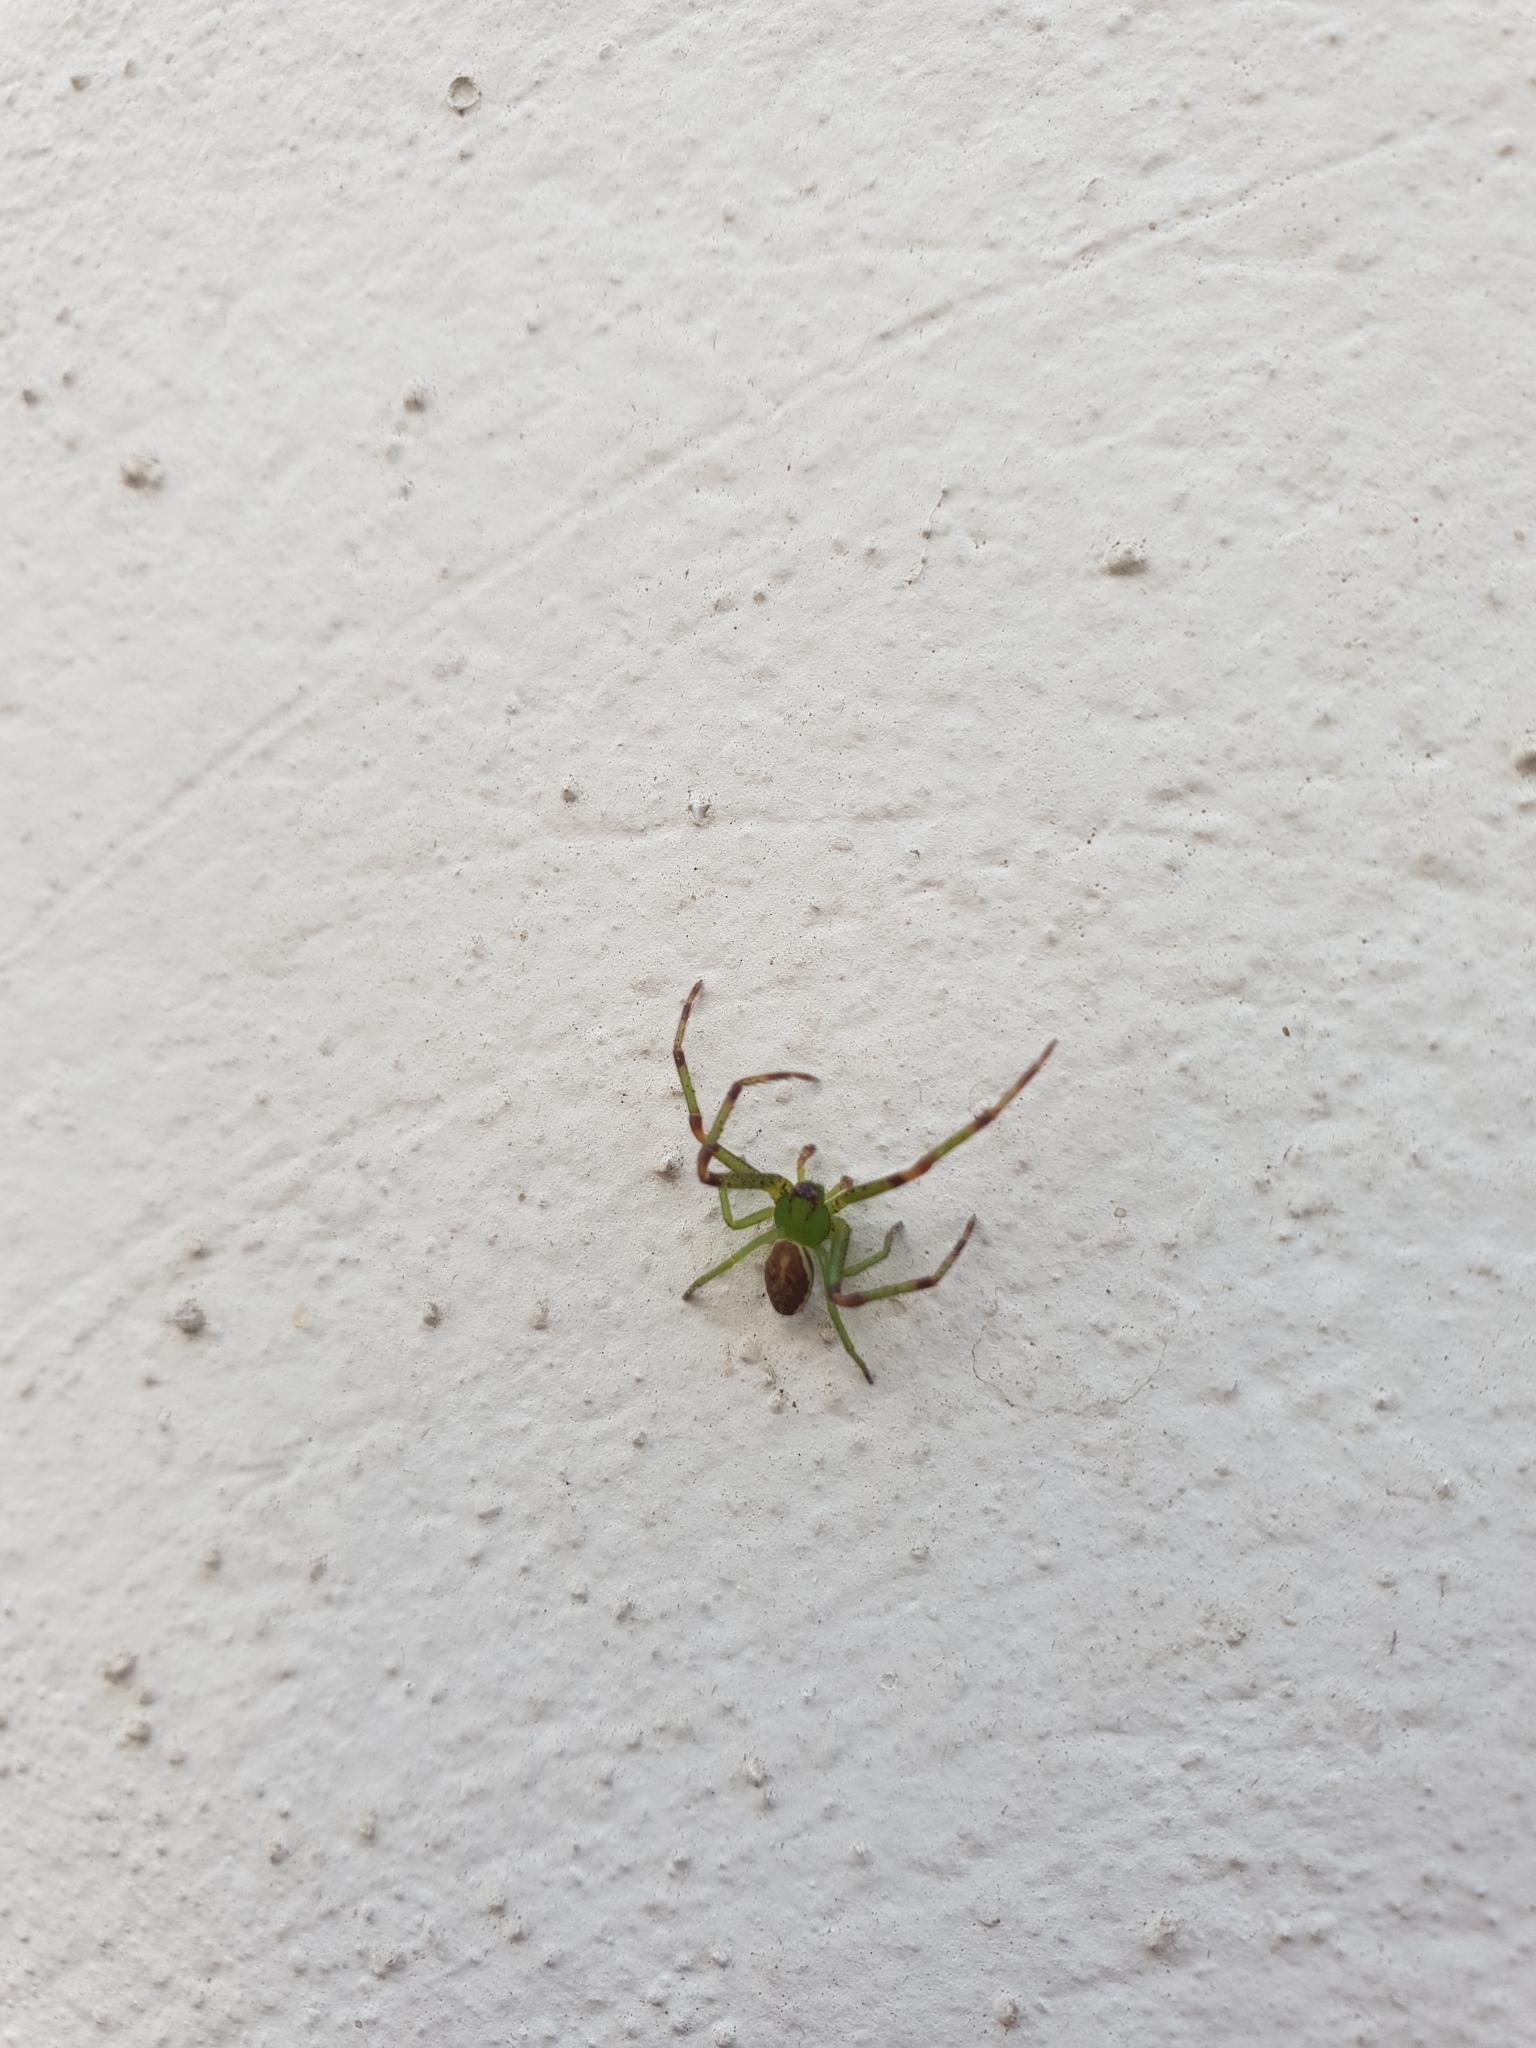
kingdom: Animalia
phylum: Arthropoda
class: Arachnida
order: Araneae
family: Thomisidae
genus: Diaea
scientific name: Diaea dorsata
